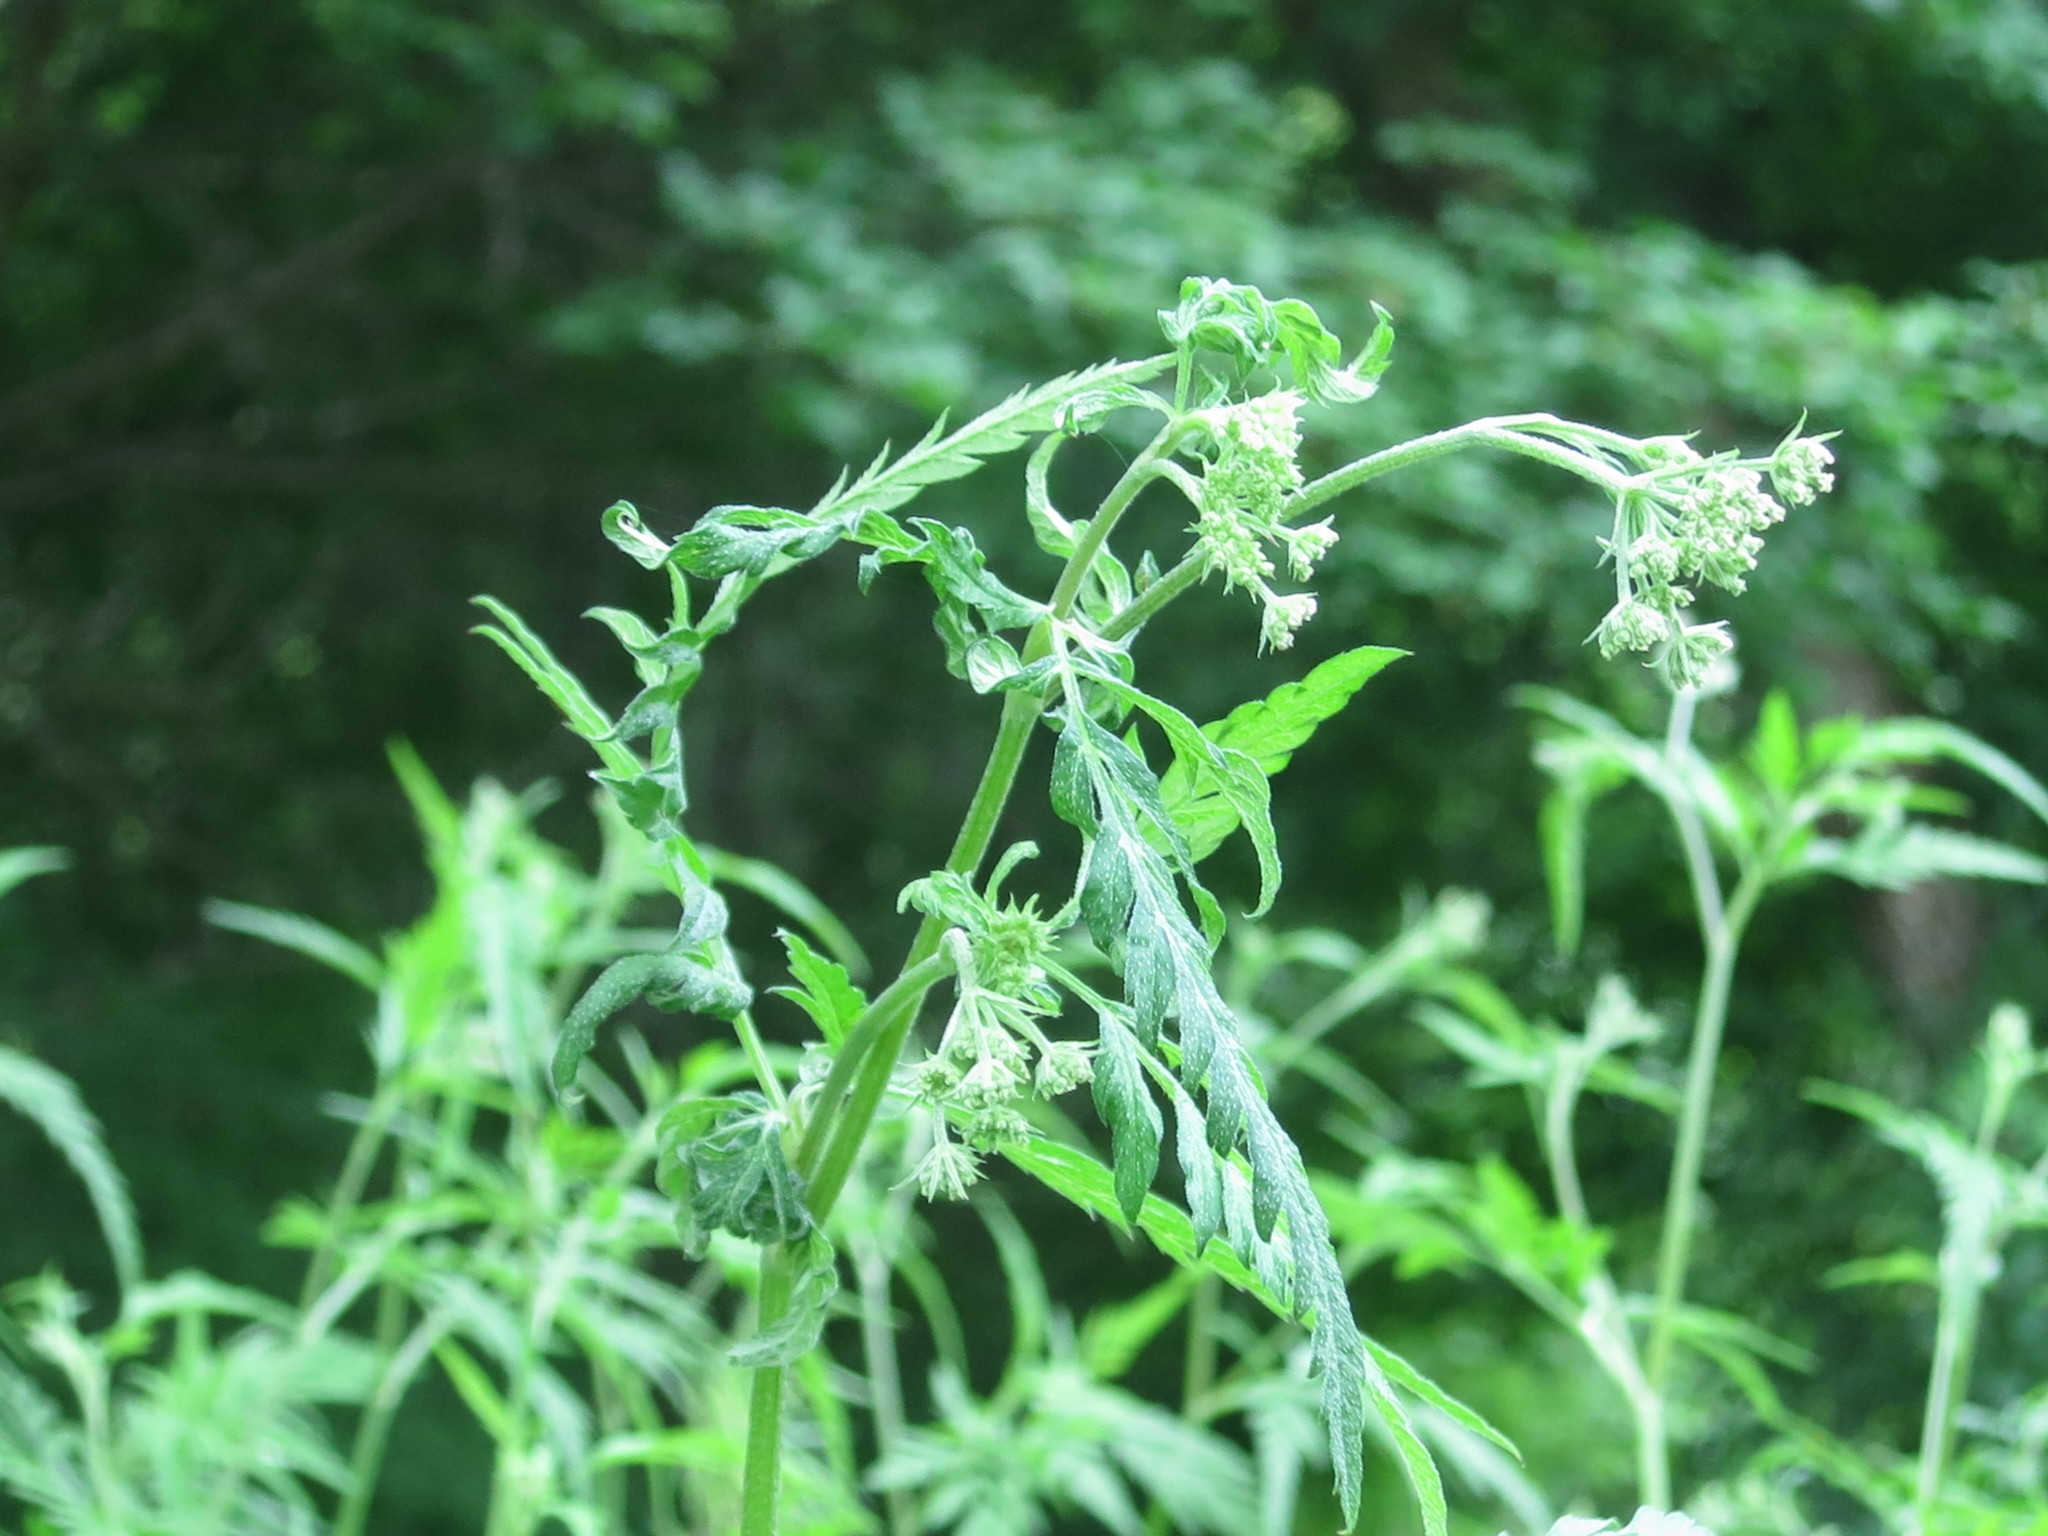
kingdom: Plantae
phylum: Tracheophyta
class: Magnoliopsida
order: Apiales
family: Apiaceae
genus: Torilis
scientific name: Torilis japonica
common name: Upright hedge-parsley
